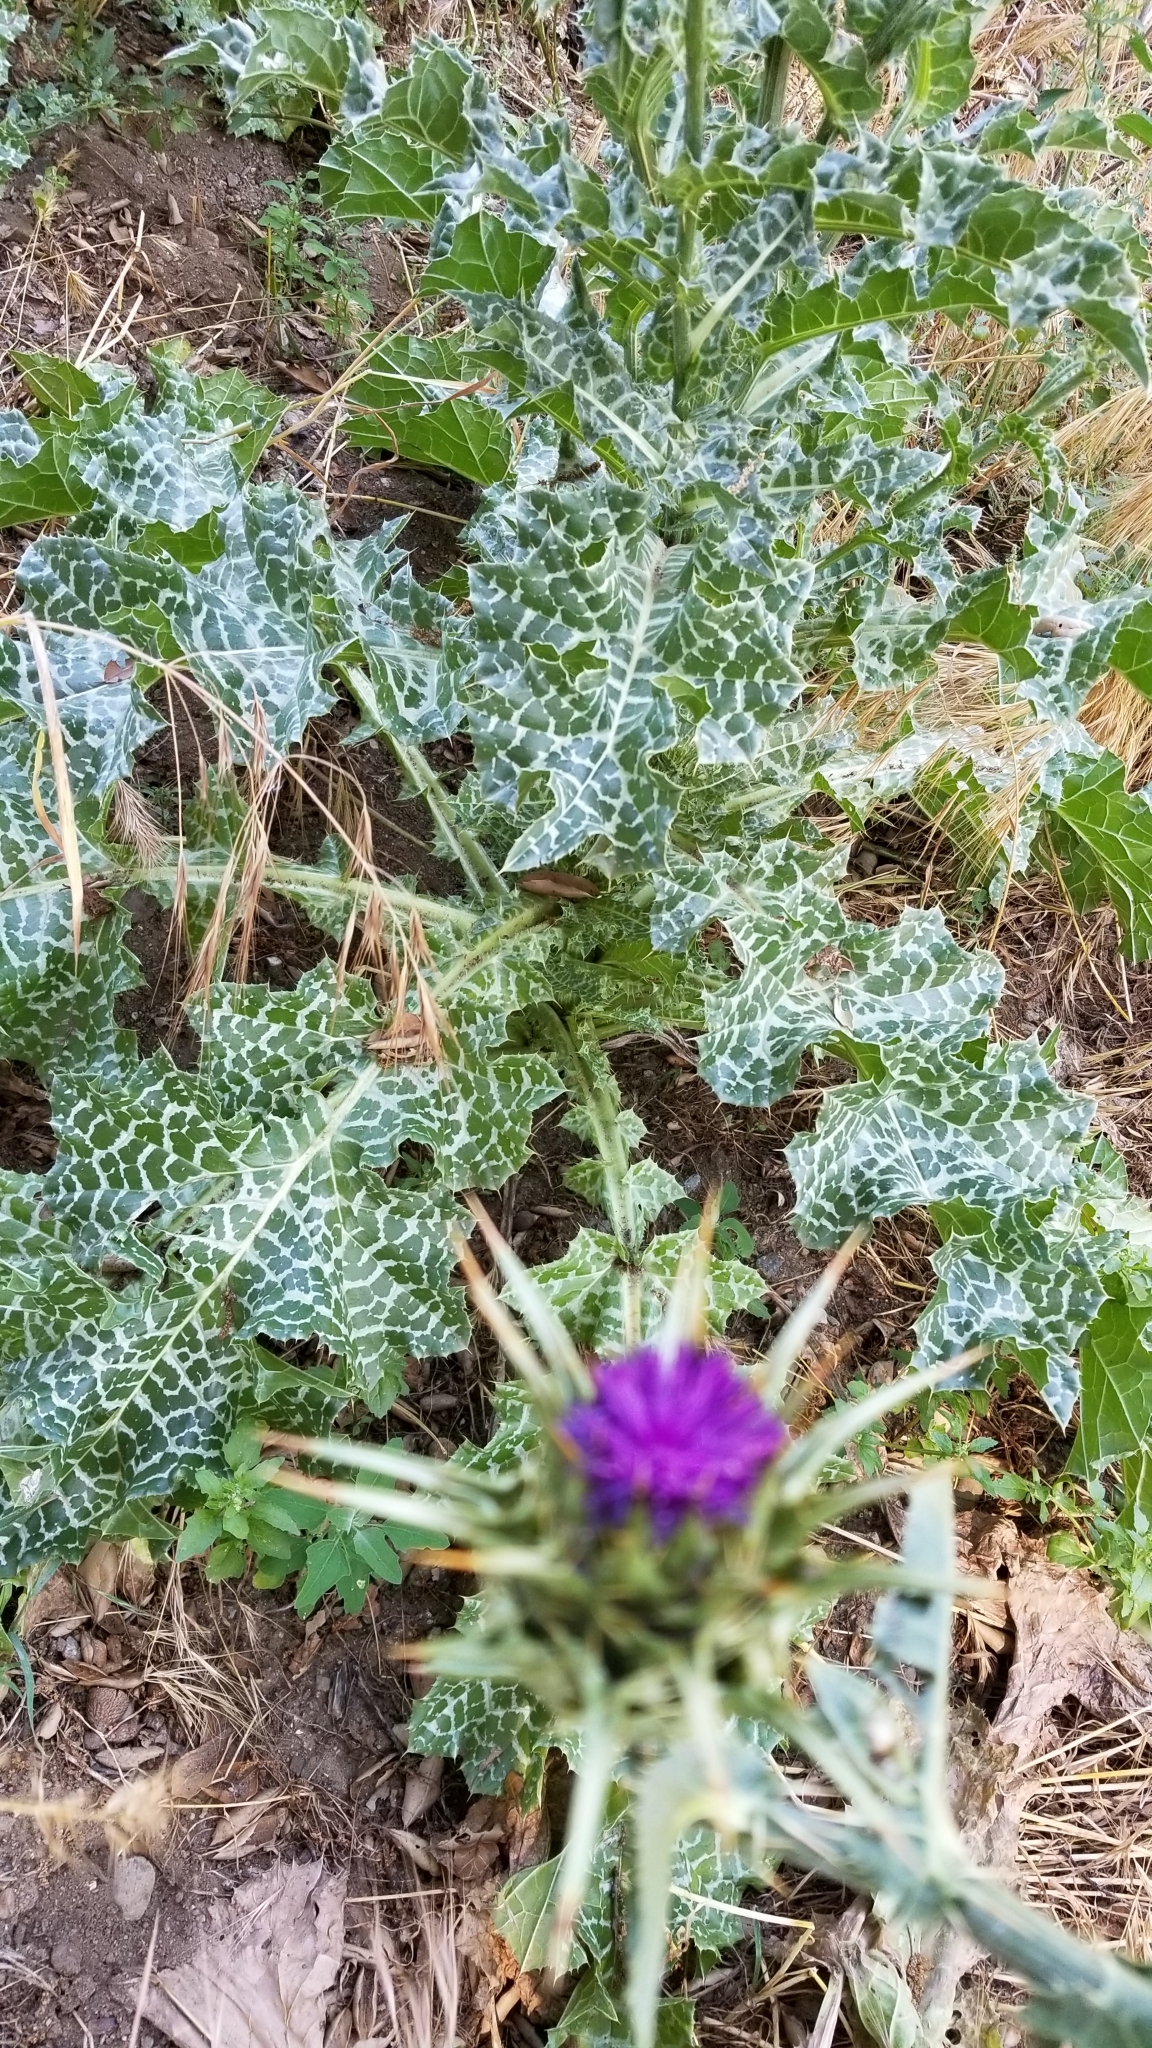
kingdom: Plantae
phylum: Tracheophyta
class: Magnoliopsida
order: Asterales
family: Asteraceae
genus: Silybum
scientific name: Silybum marianum
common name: Milk thistle
